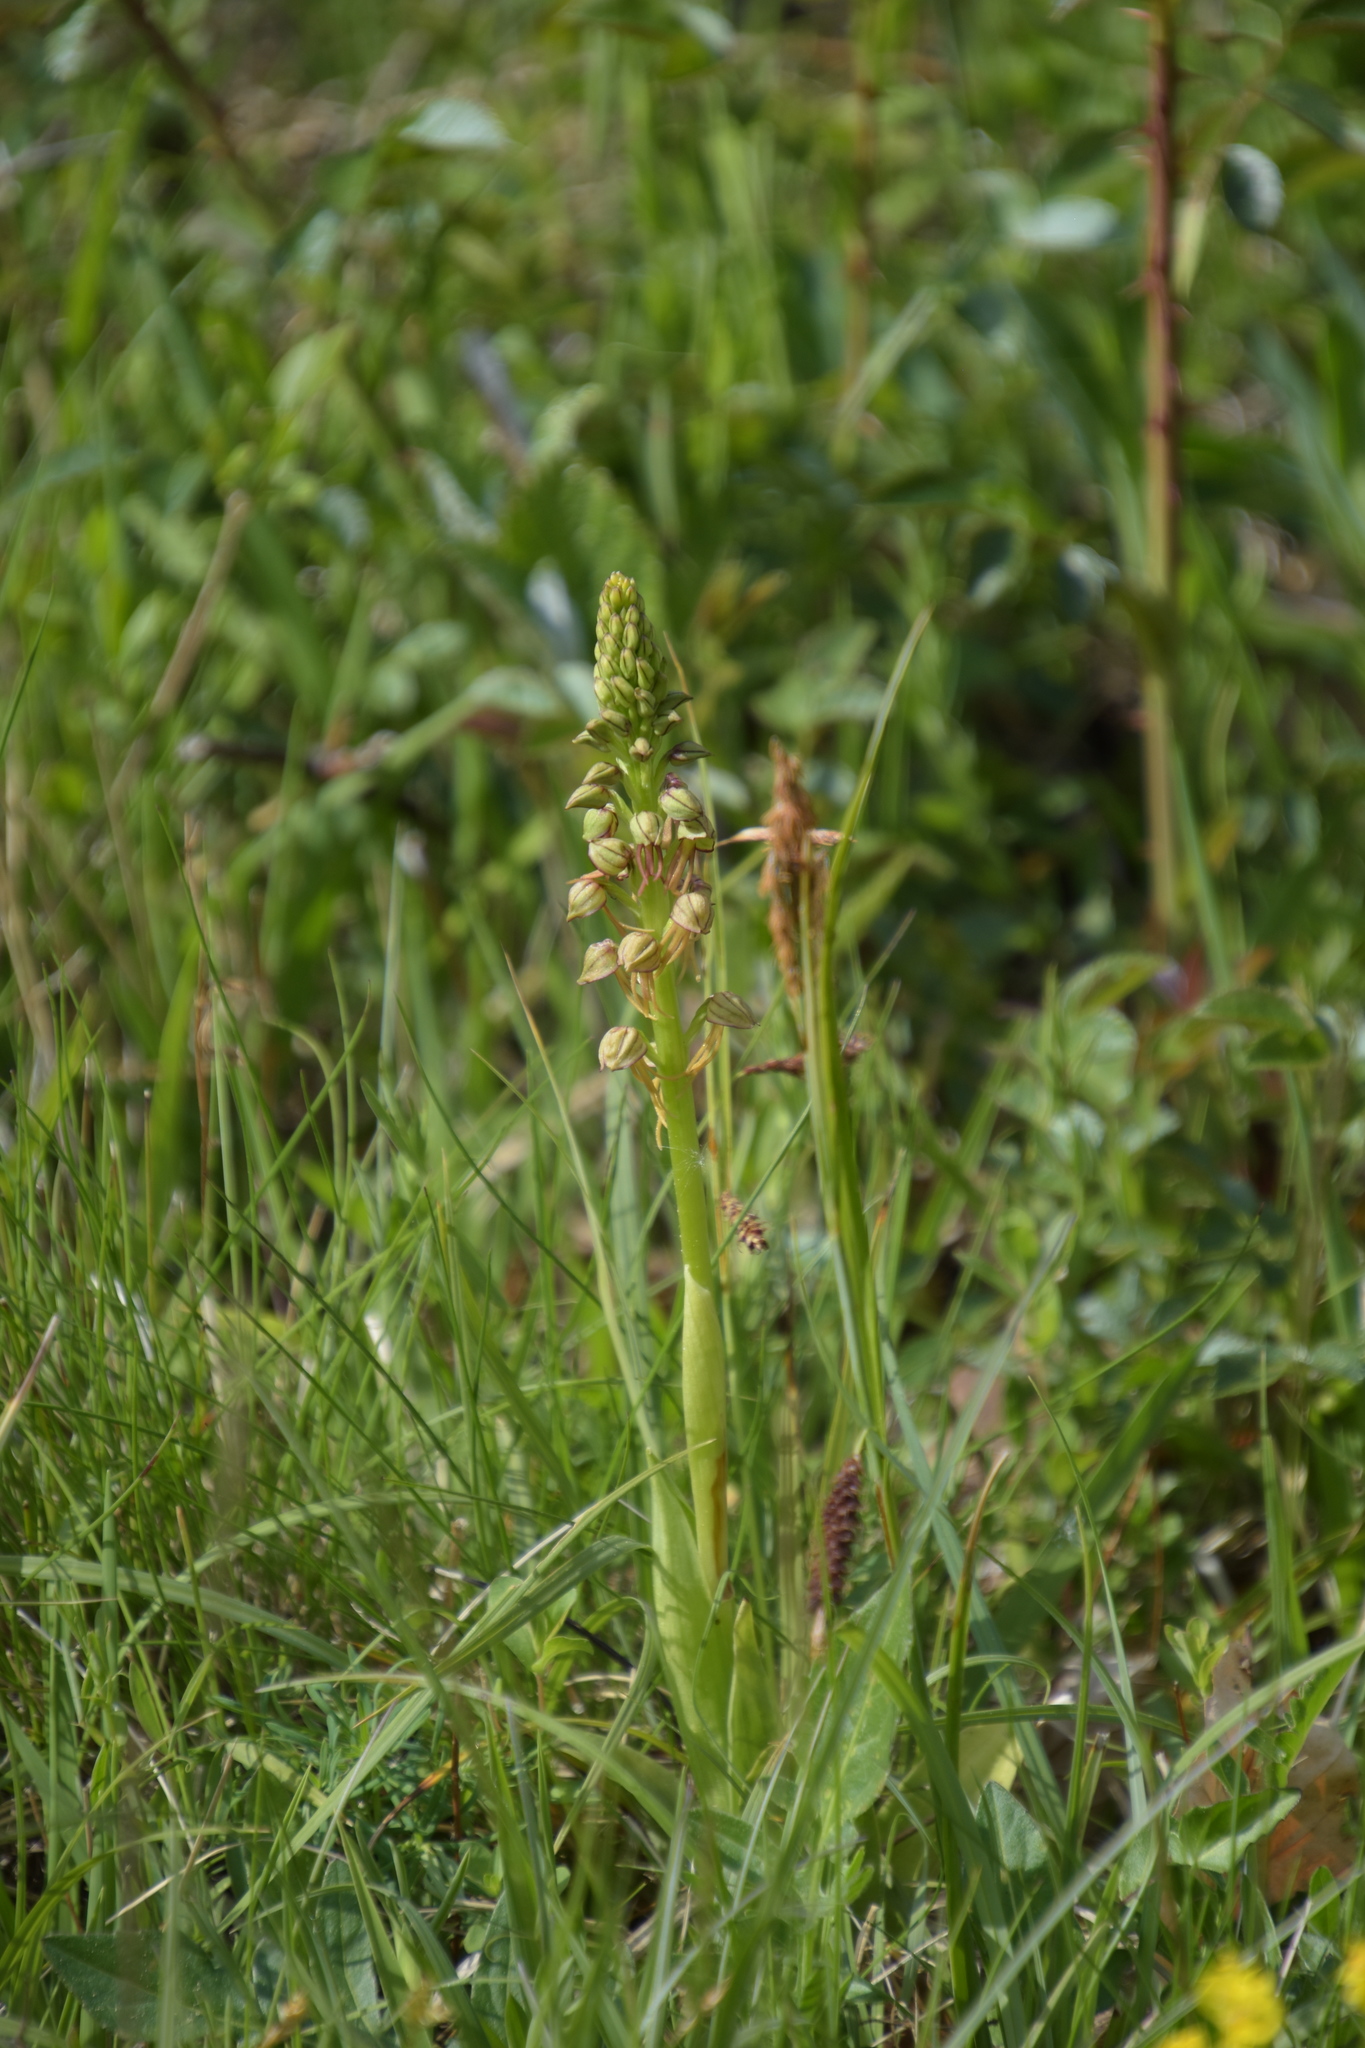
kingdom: Plantae
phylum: Tracheophyta
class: Liliopsida
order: Asparagales
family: Orchidaceae
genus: Orchis
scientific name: Orchis anthropophora
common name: Man orchid
